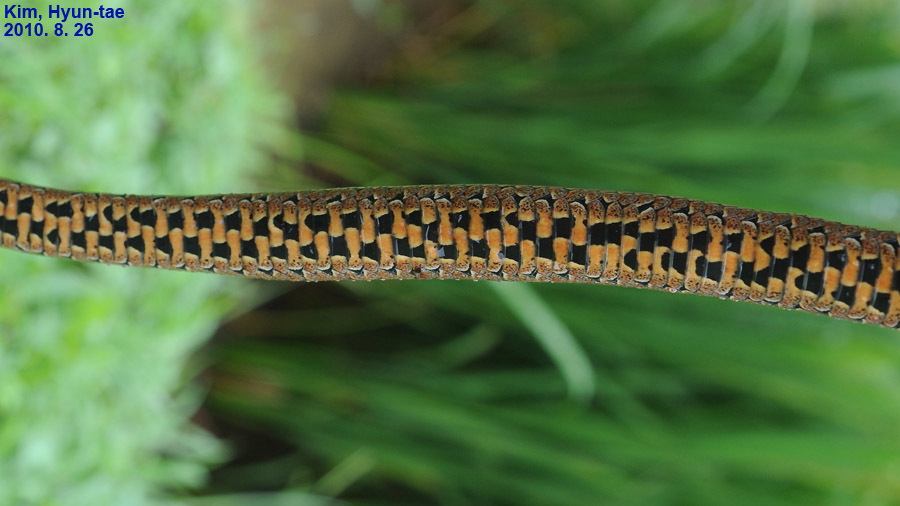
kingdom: Animalia
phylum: Chordata
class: Squamata
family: Colubridae
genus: Oocatochus
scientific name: Oocatochus rufodorsatus
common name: Frog-eating rat snake
